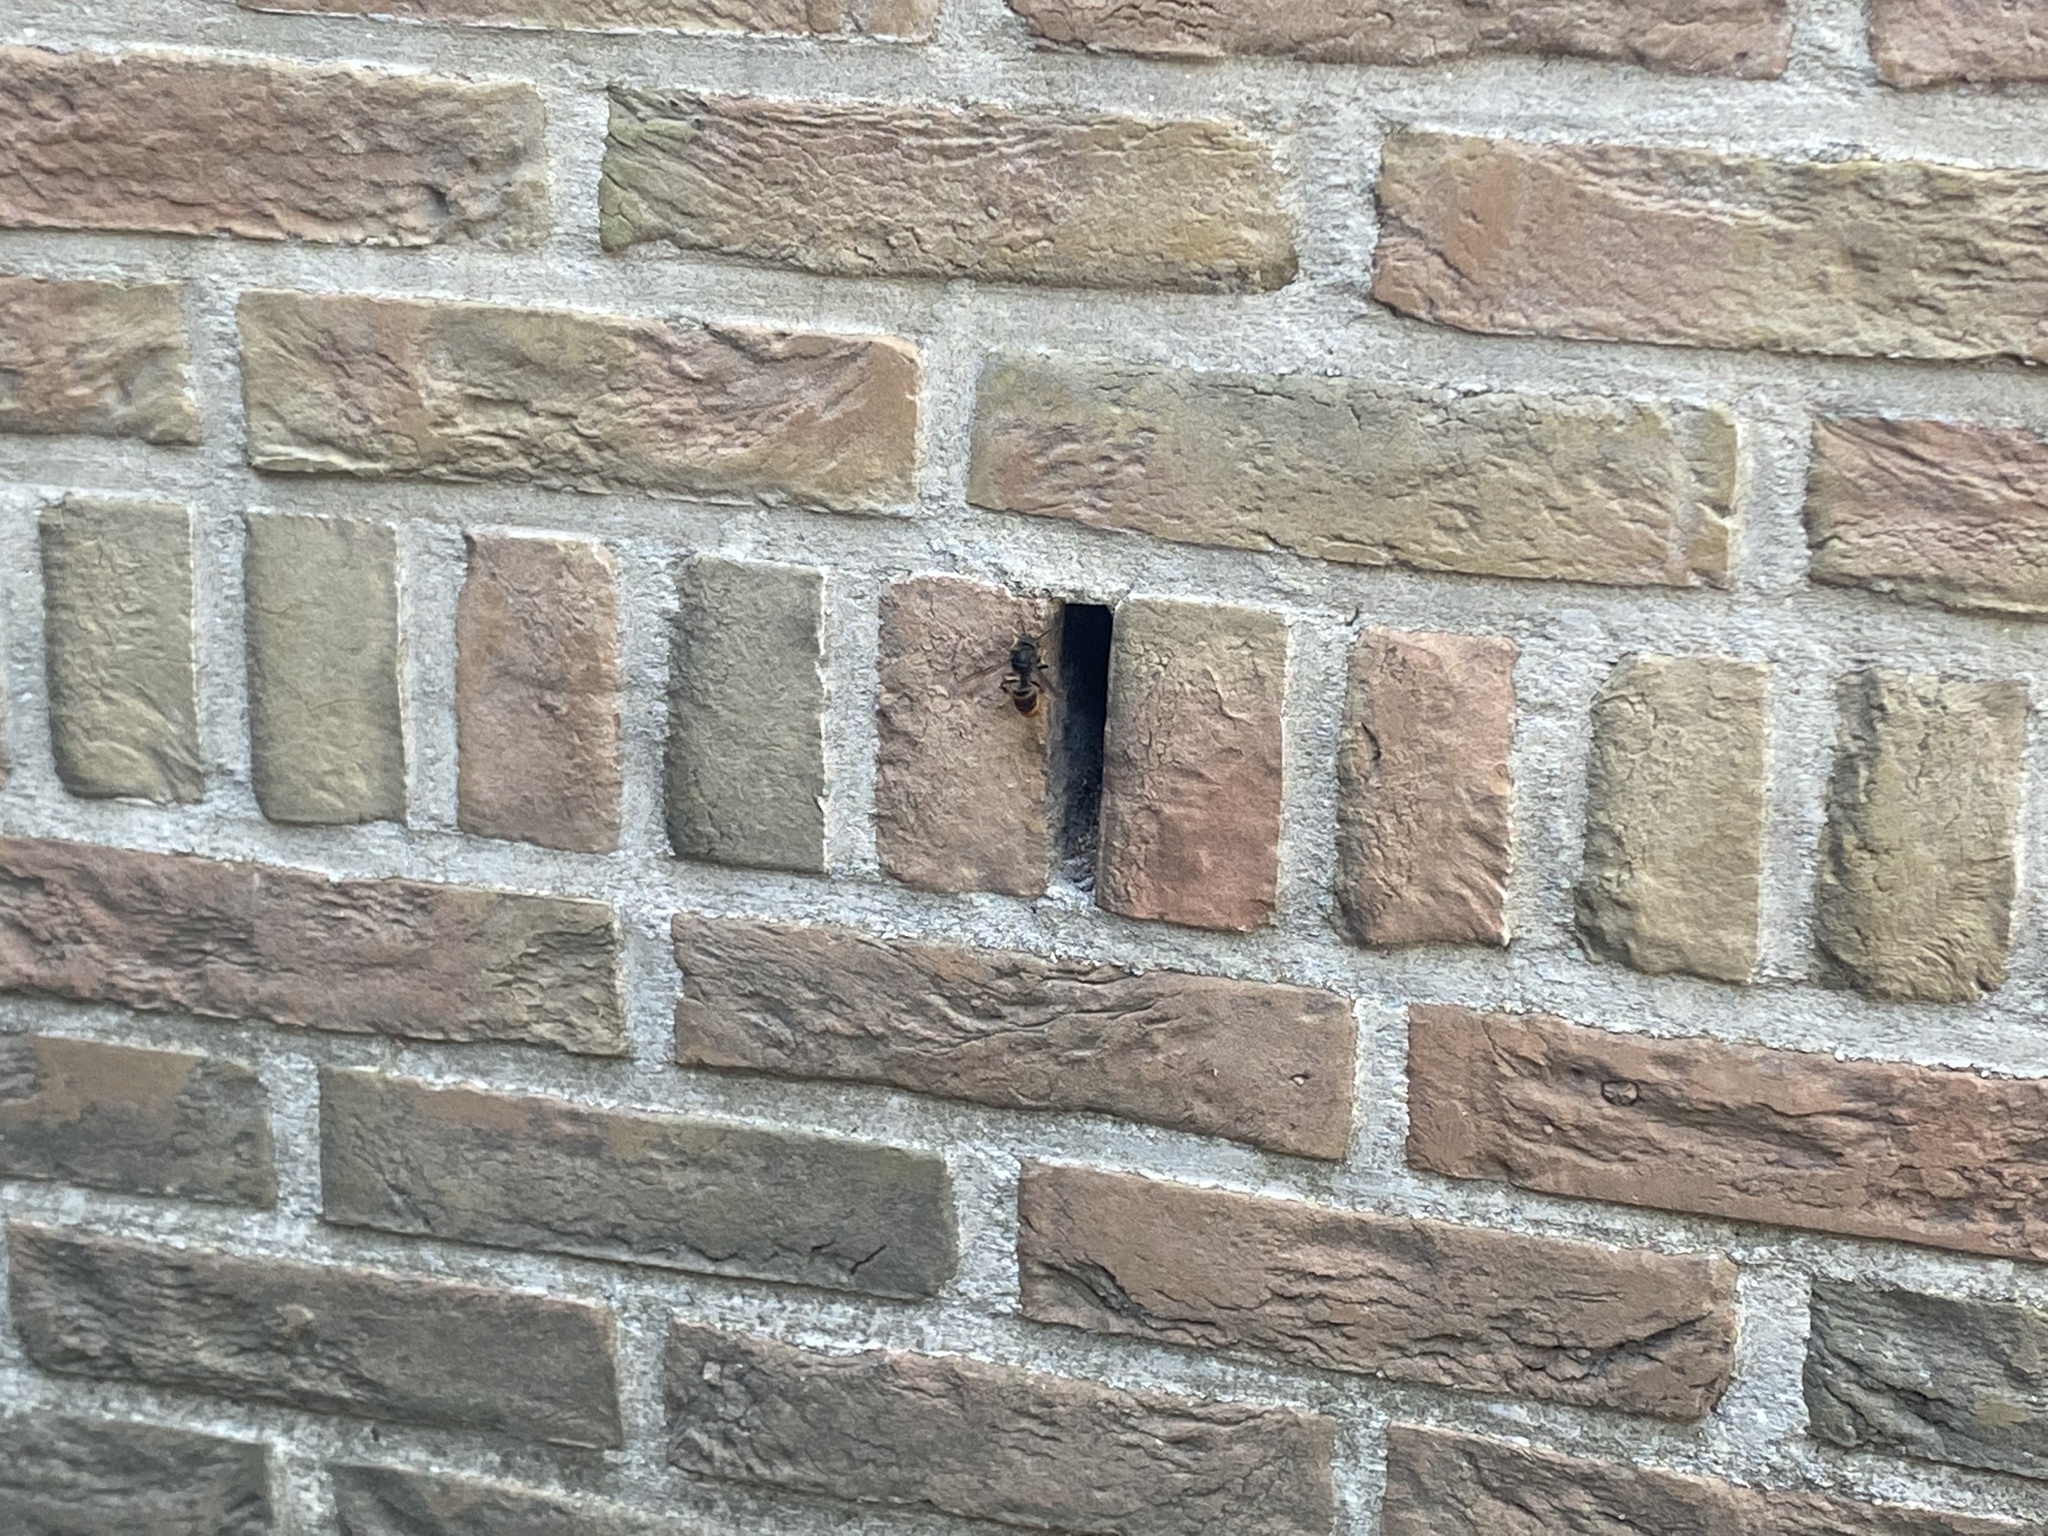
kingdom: Animalia
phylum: Arthropoda
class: Insecta
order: Hymenoptera
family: Vespidae
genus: Vespa
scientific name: Vespa velutina
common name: Asian hornet
